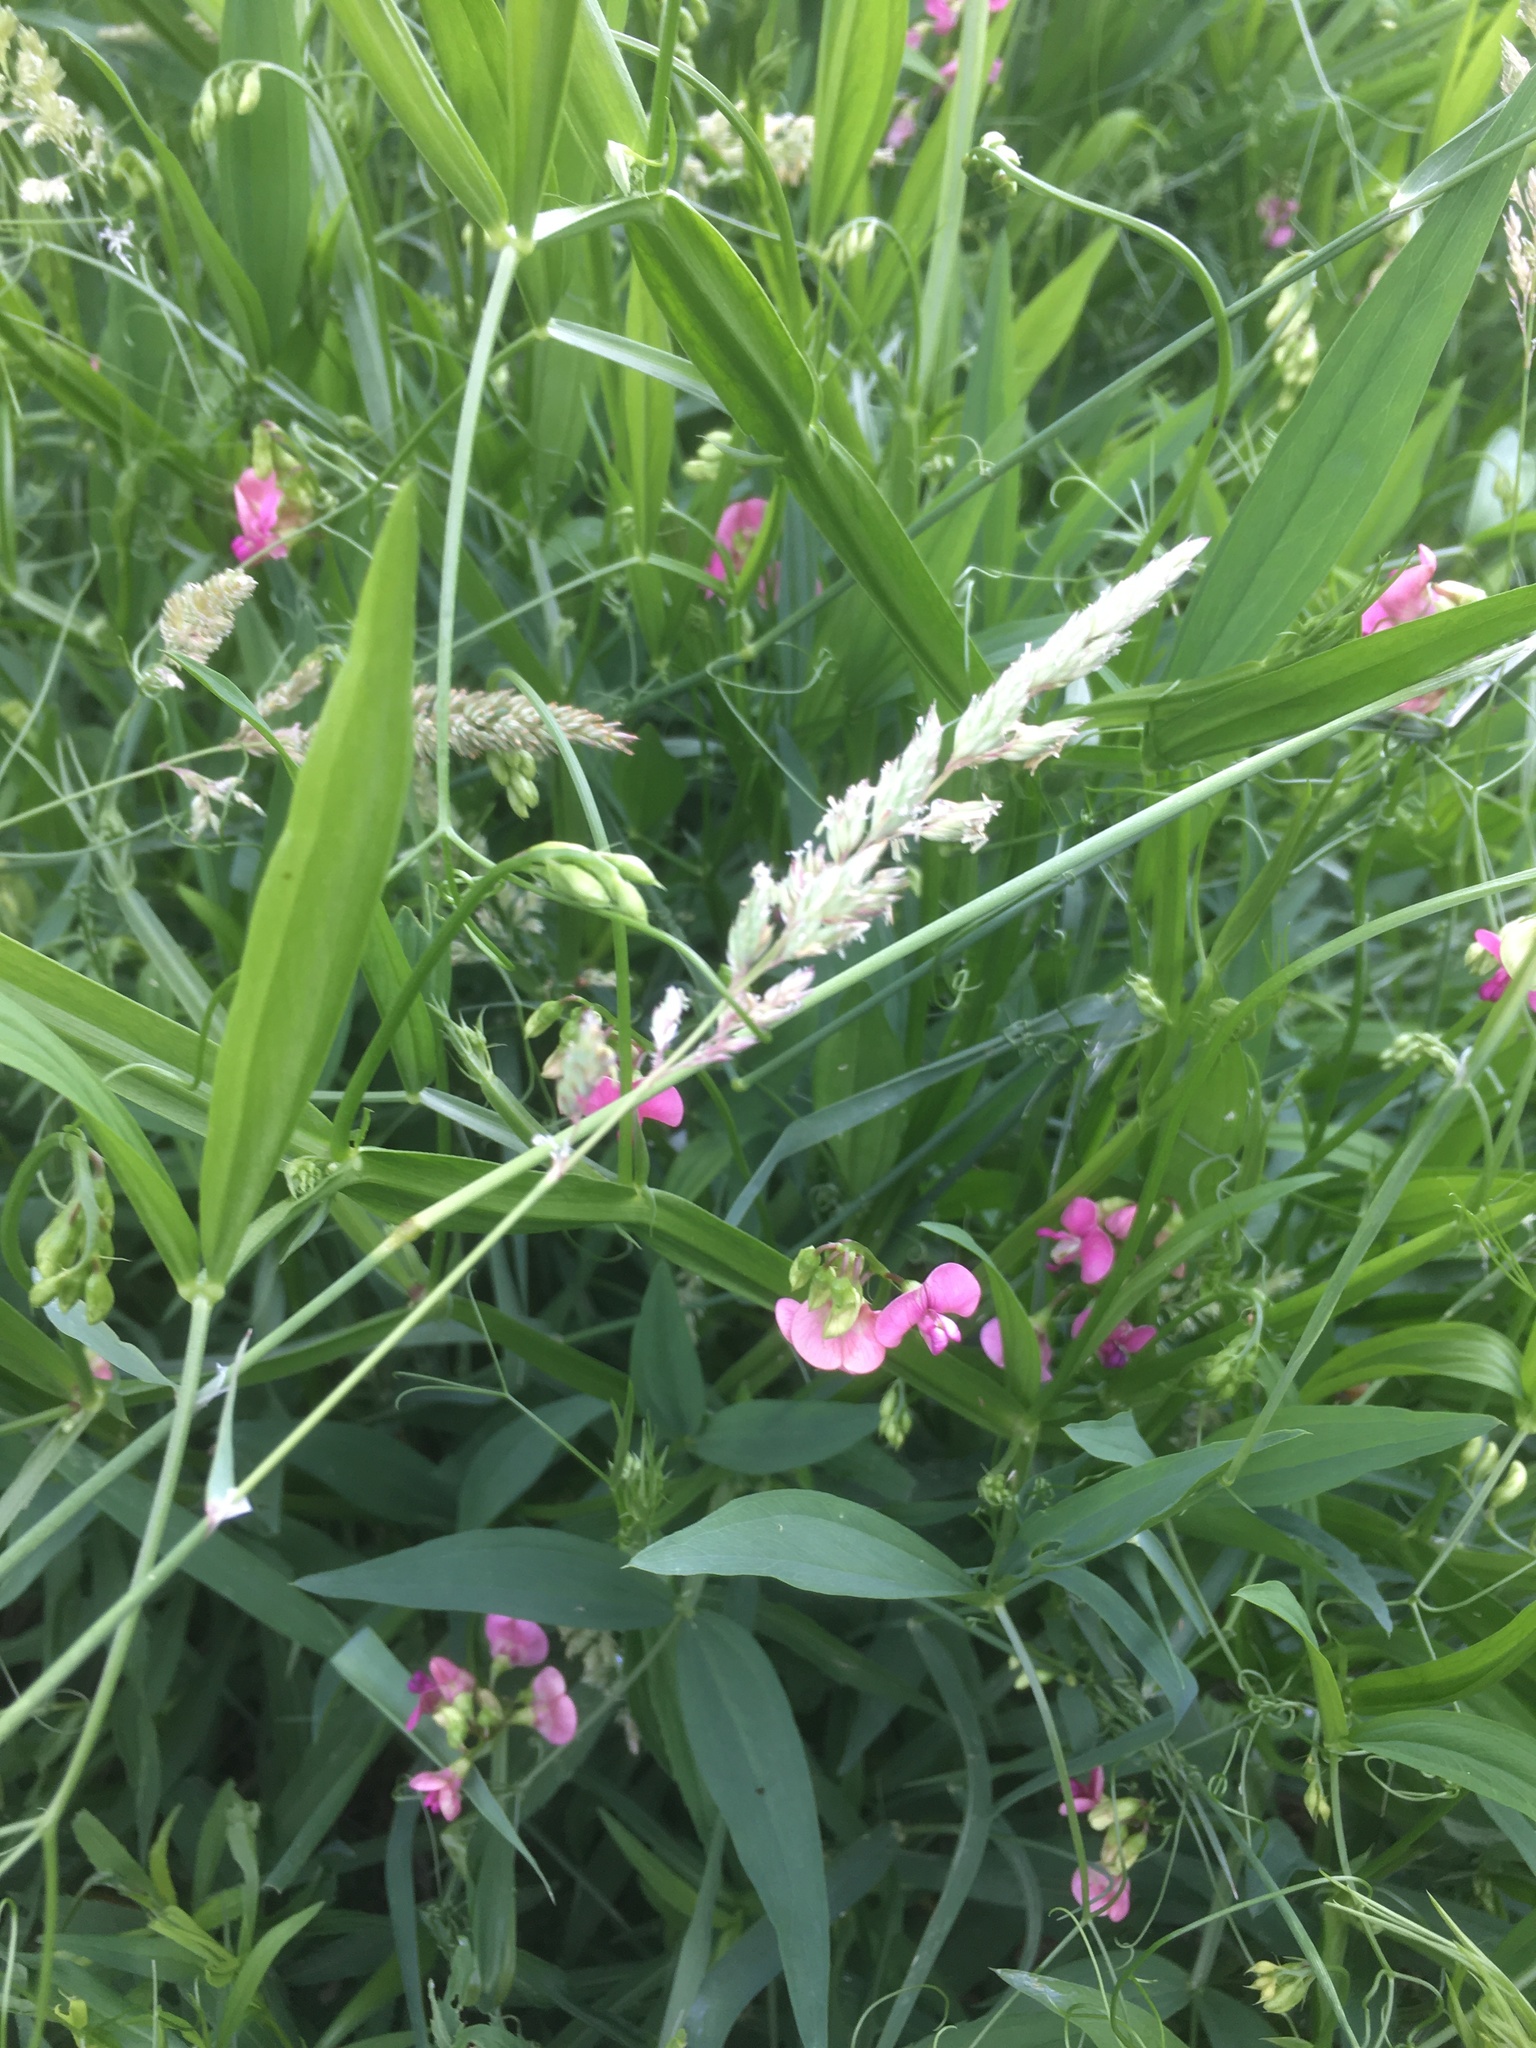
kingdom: Plantae
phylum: Tracheophyta
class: Magnoliopsida
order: Fabales
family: Fabaceae
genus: Lathyrus
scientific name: Lathyrus sylvestris
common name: Flat pea
